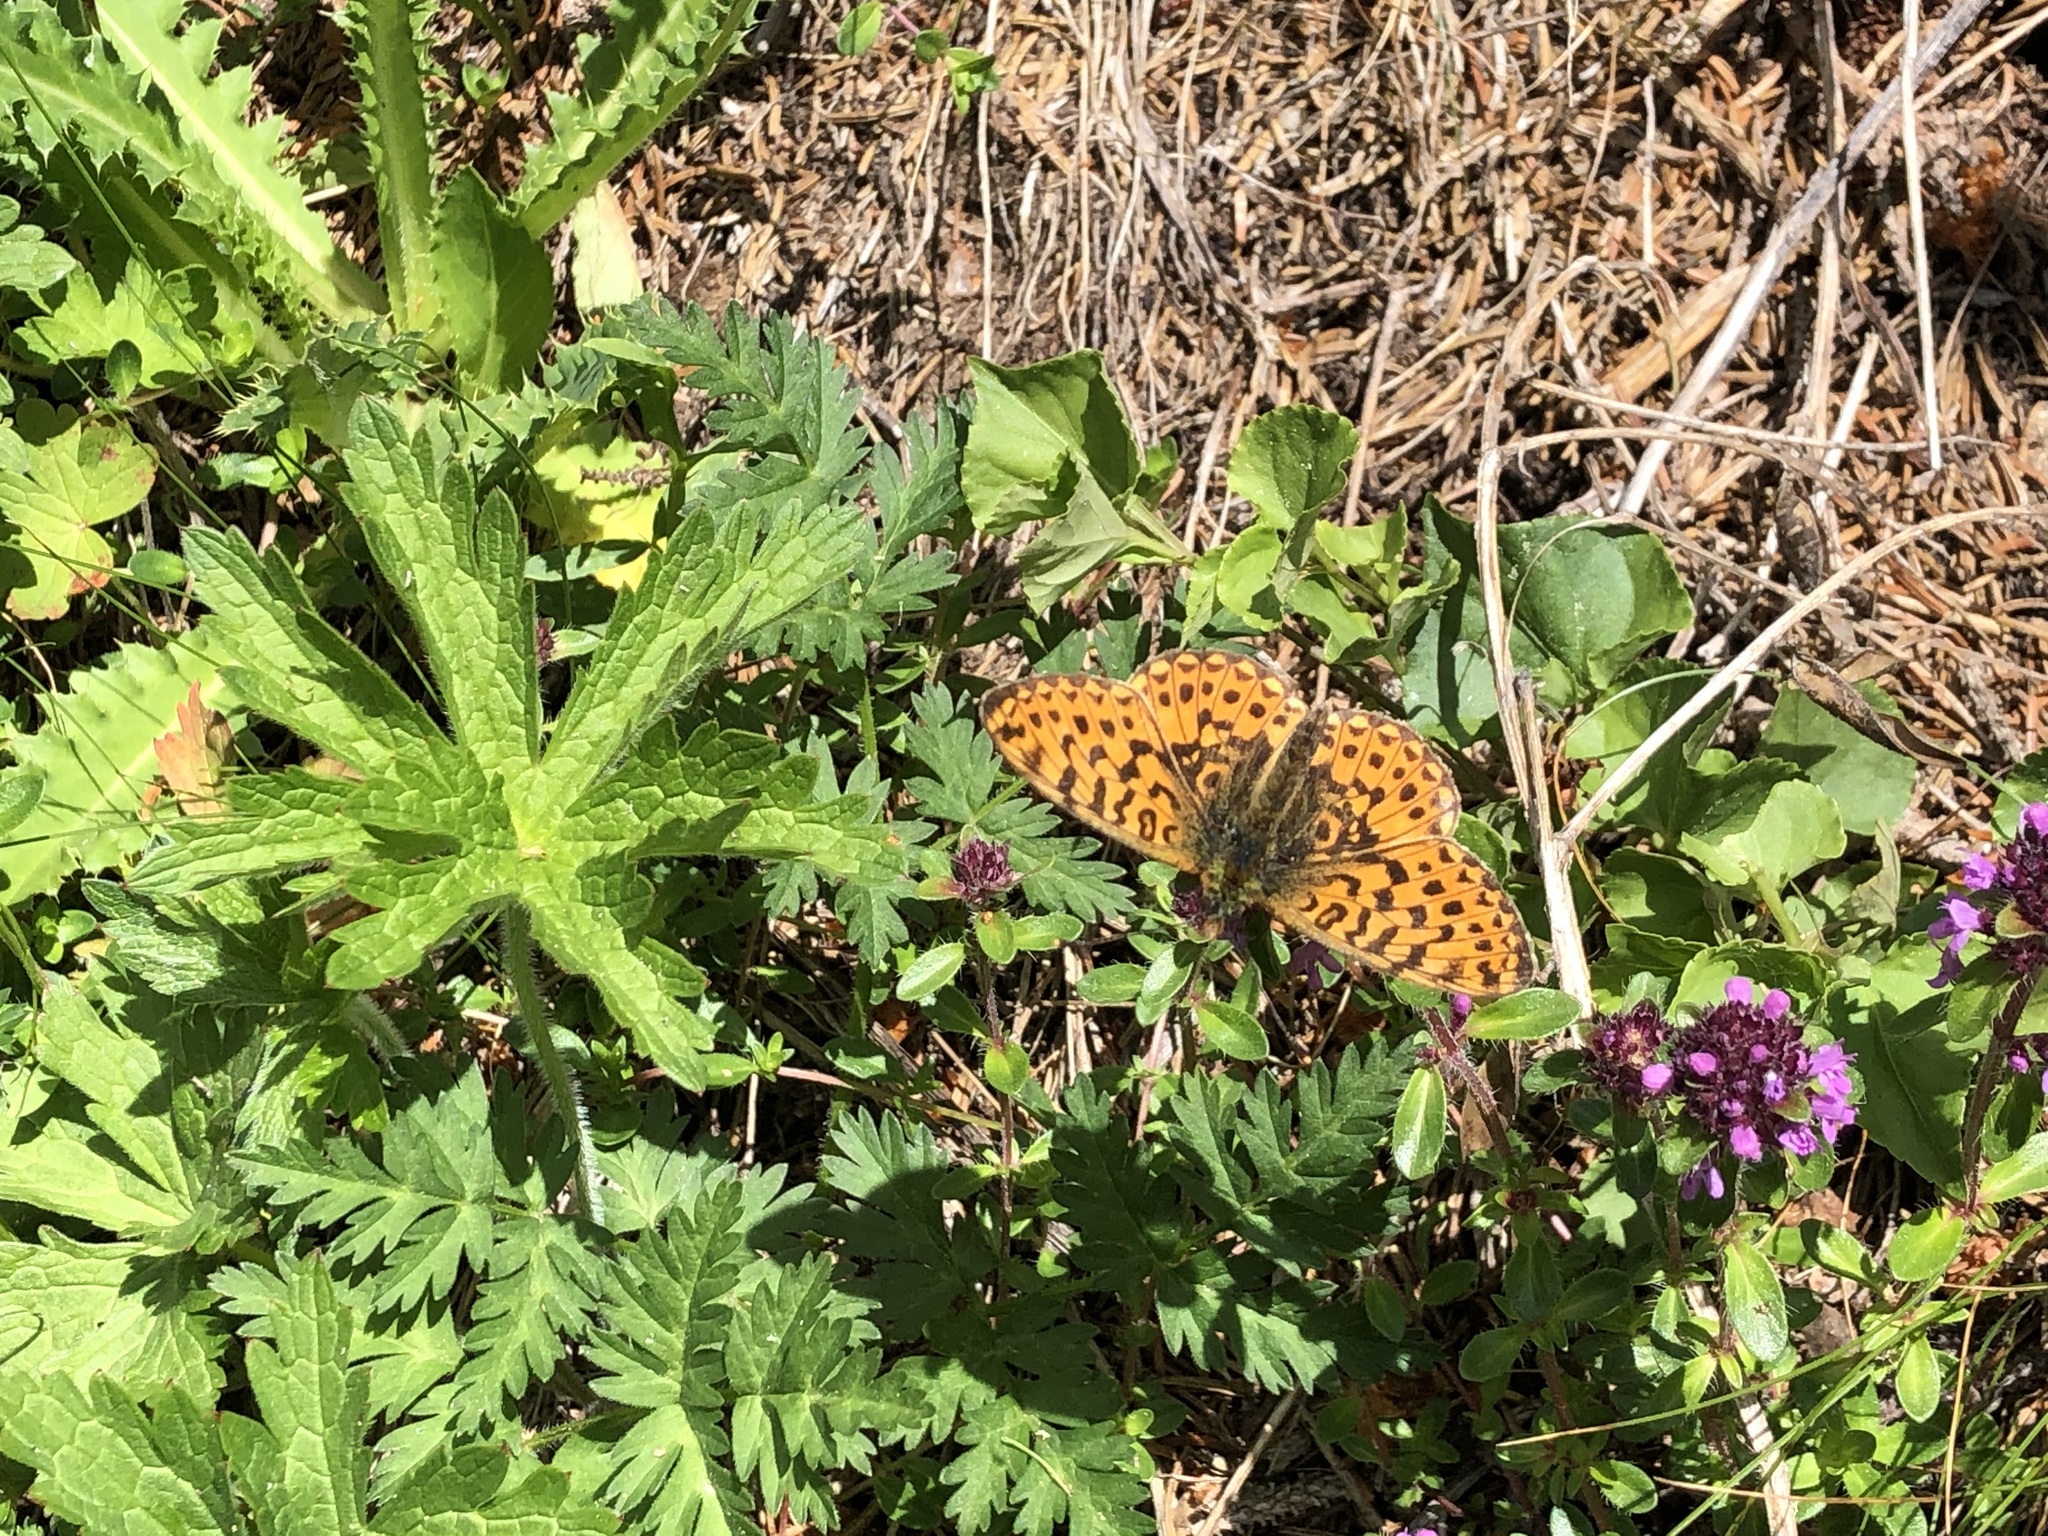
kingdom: Animalia
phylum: Arthropoda
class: Insecta
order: Lepidoptera
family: Nymphalidae
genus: Clossiana
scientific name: Clossiana euphrosyne
